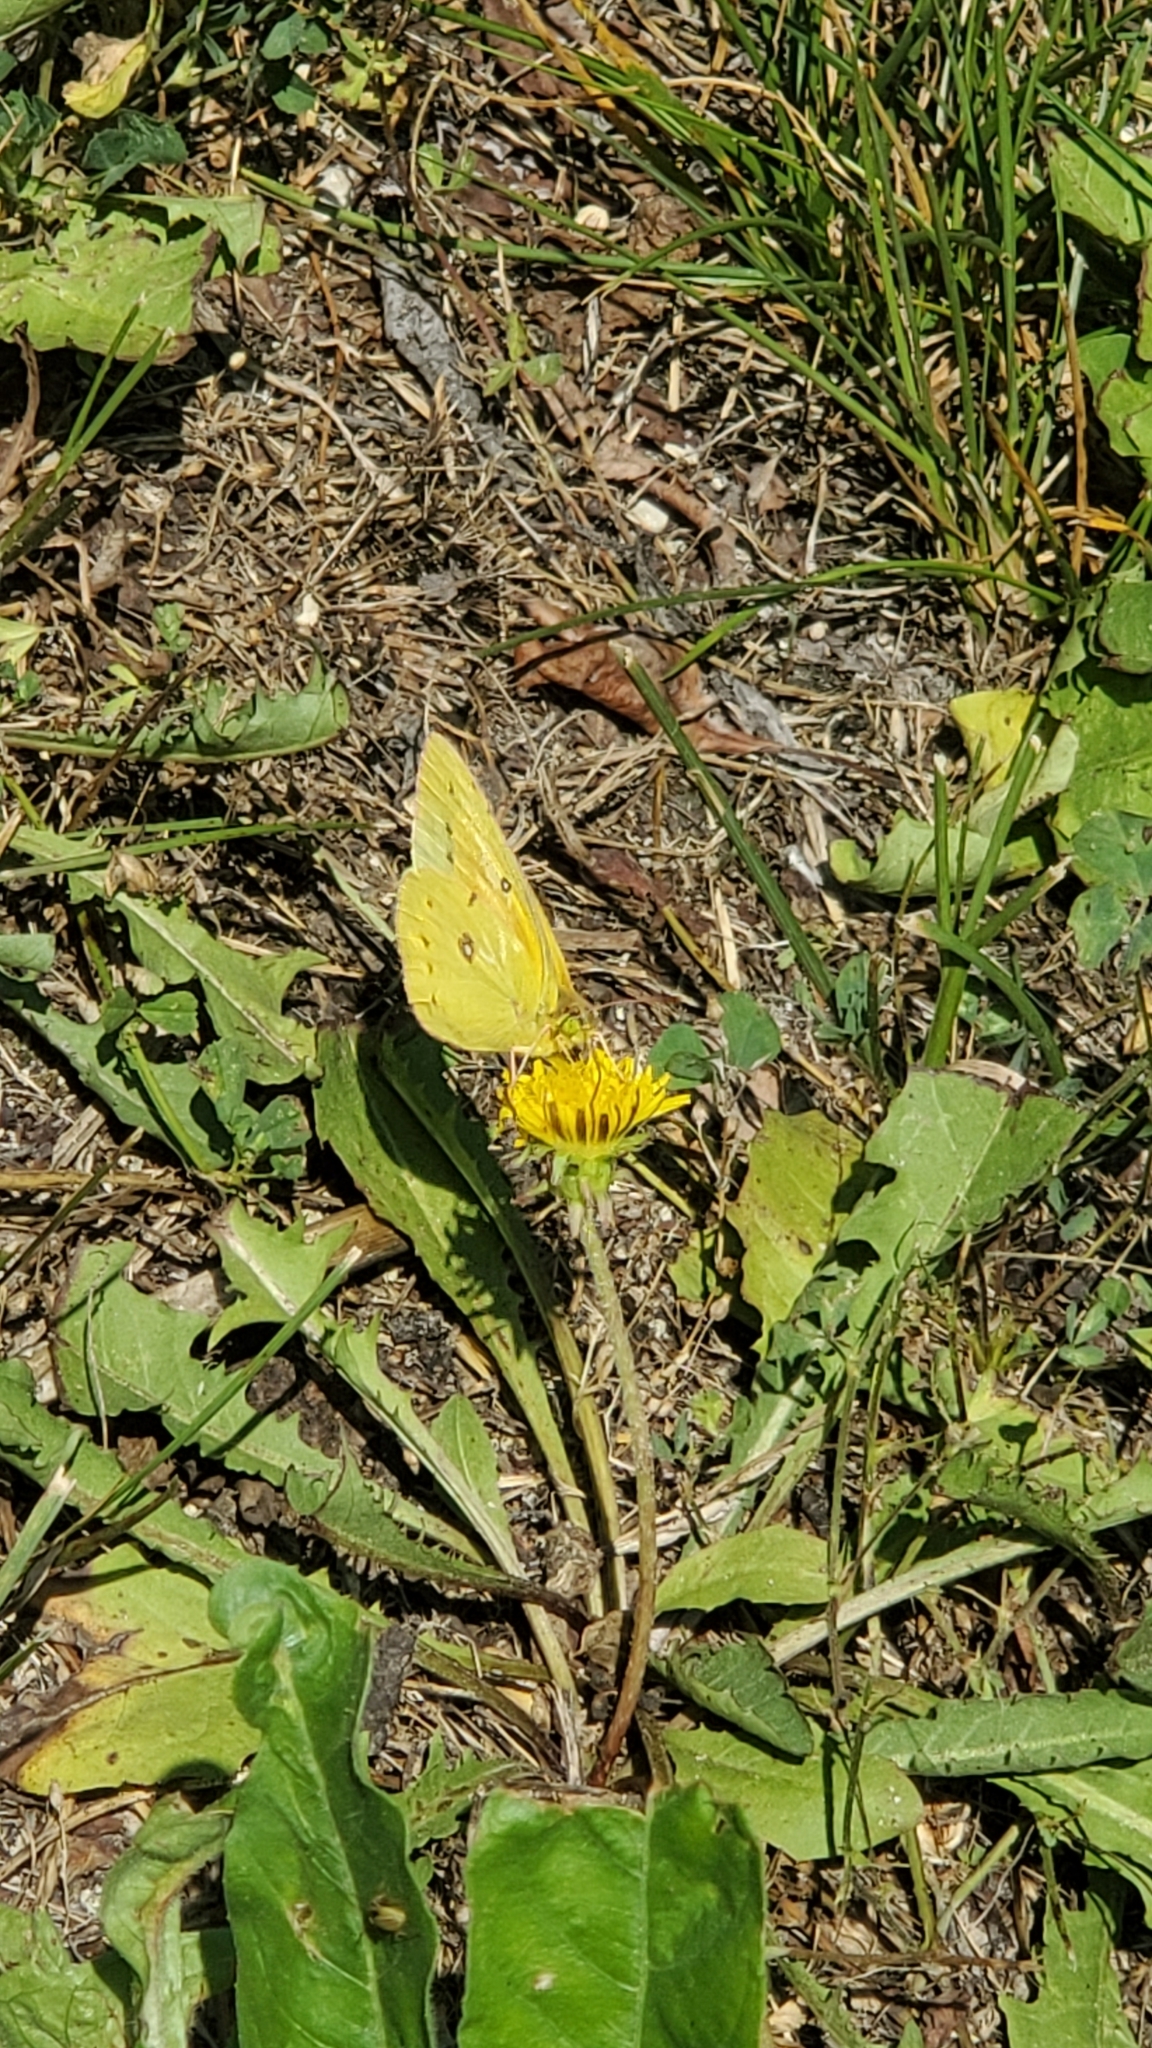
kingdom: Animalia
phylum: Arthropoda
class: Insecta
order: Lepidoptera
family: Pieridae
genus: Colias
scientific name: Colias eurytheme
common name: Alfalfa butterfly
